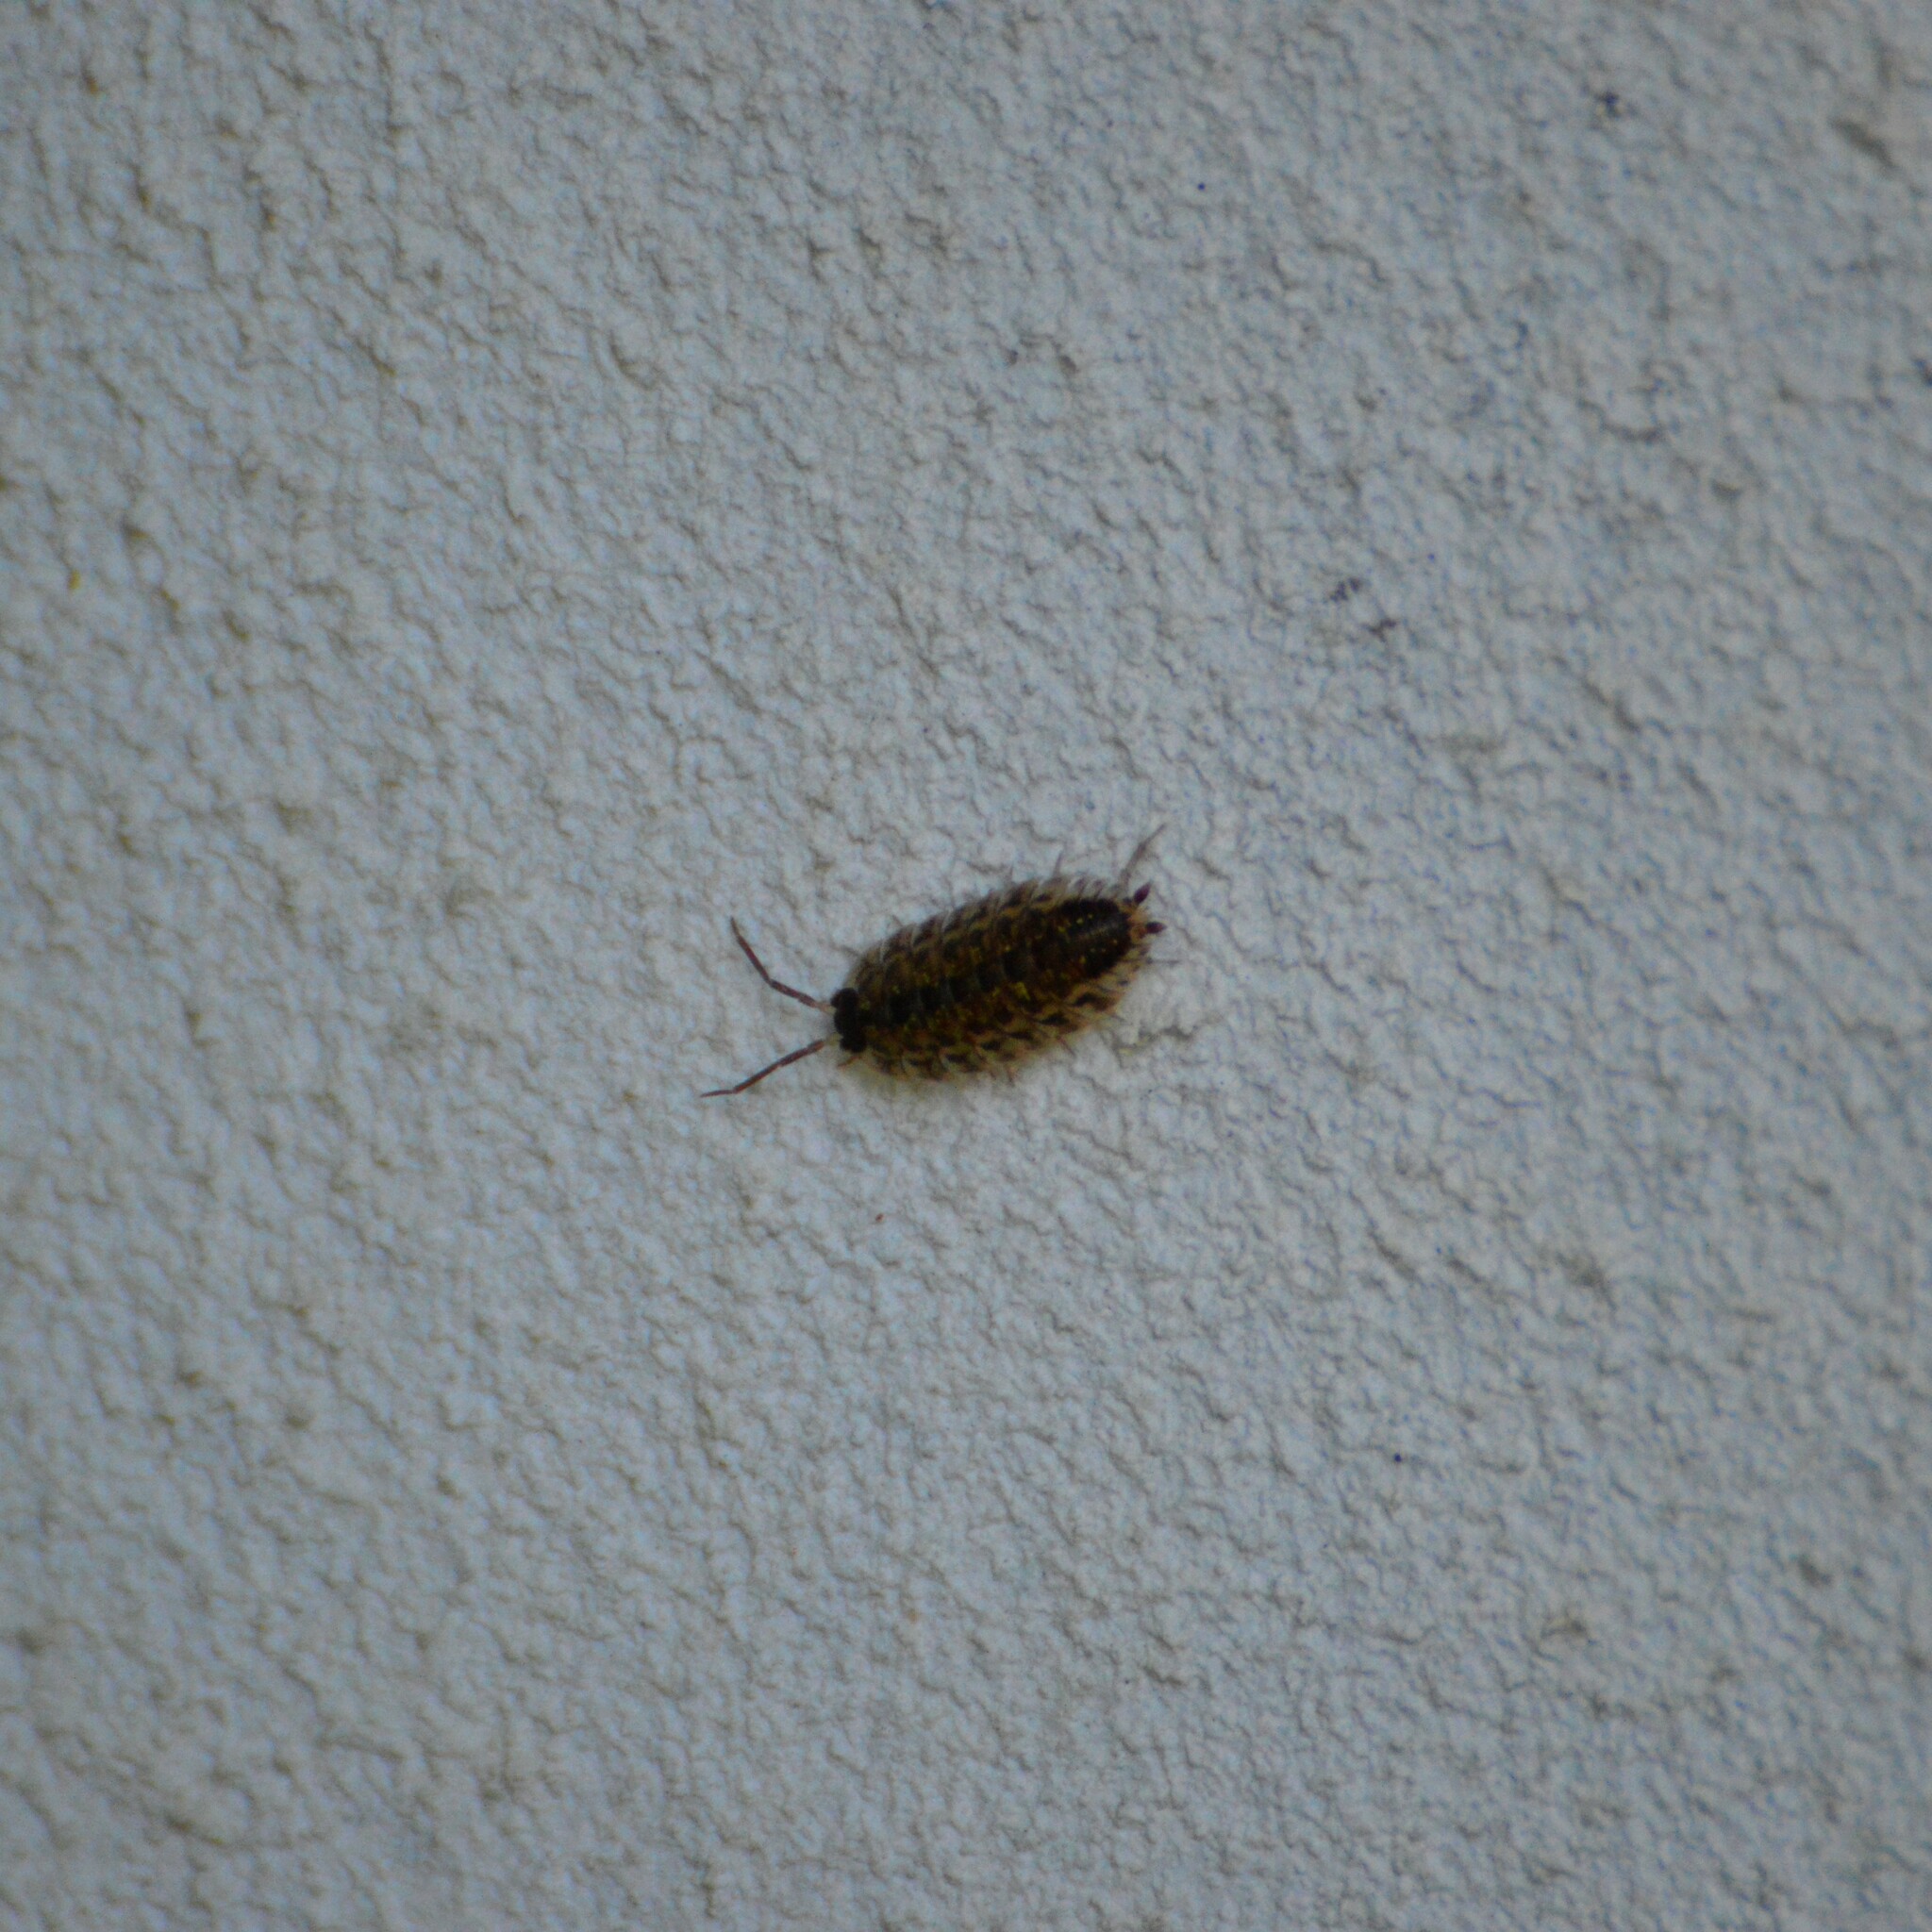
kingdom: Animalia
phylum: Arthropoda
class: Malacostraca
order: Isopoda
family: Porcellionidae
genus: Porcellio
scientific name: Porcellio spinicornis
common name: Painted woodlouse
